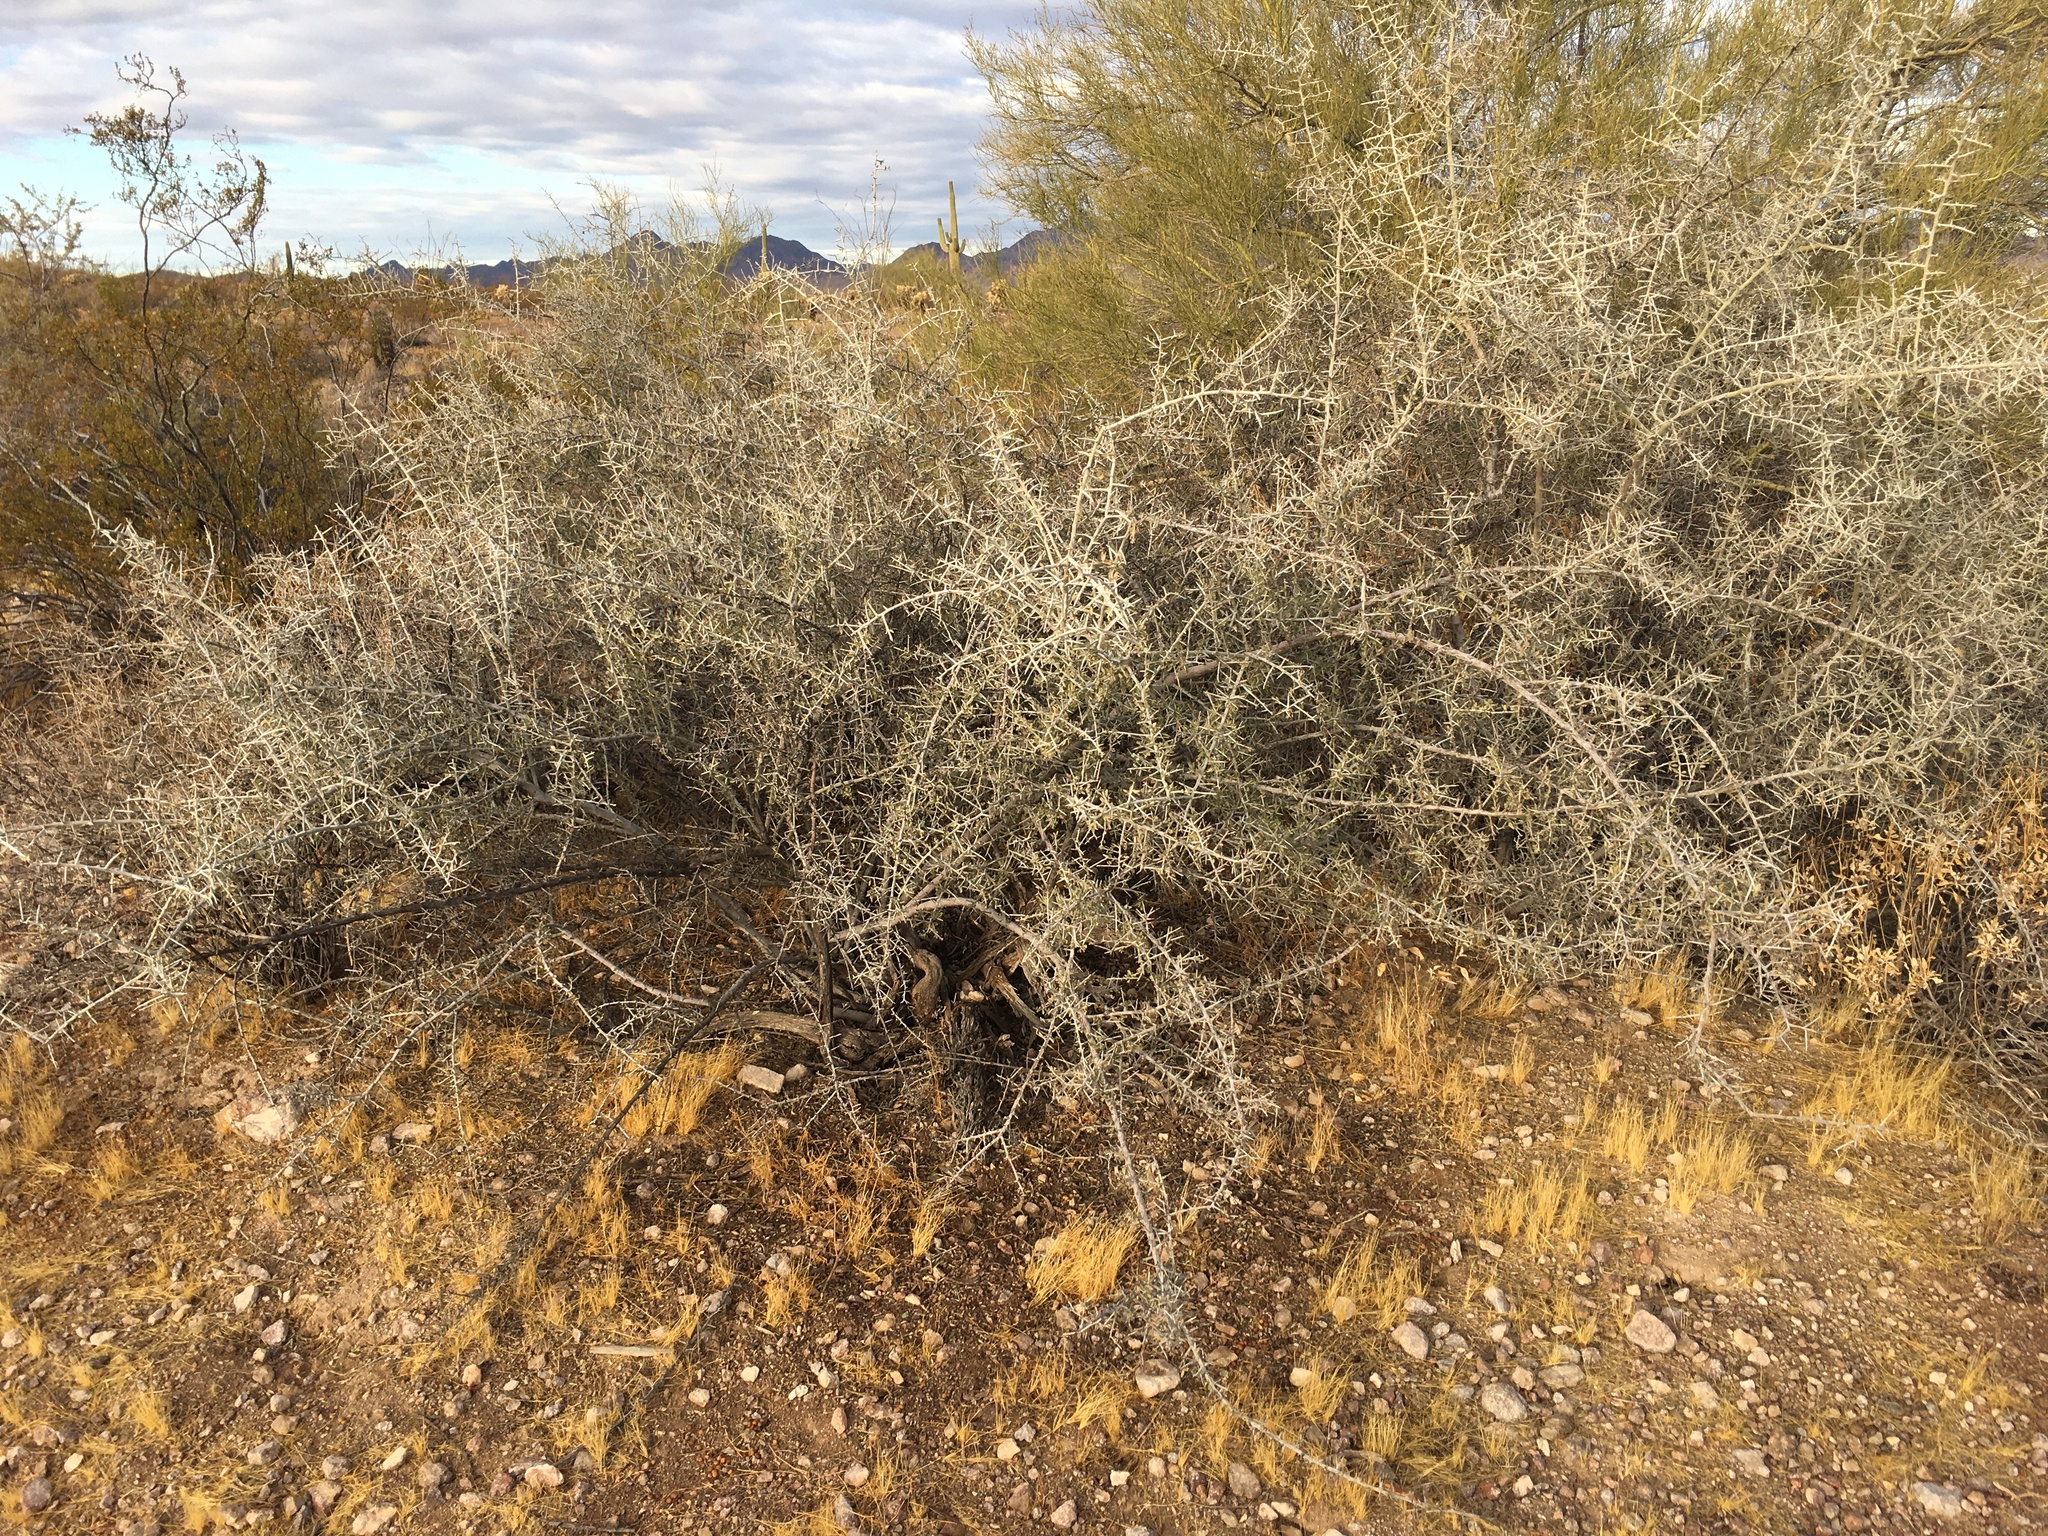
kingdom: Plantae
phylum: Tracheophyta
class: Magnoliopsida
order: Rosales
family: Rhamnaceae
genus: Sarcomphalus
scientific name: Sarcomphalus obtusifolius
